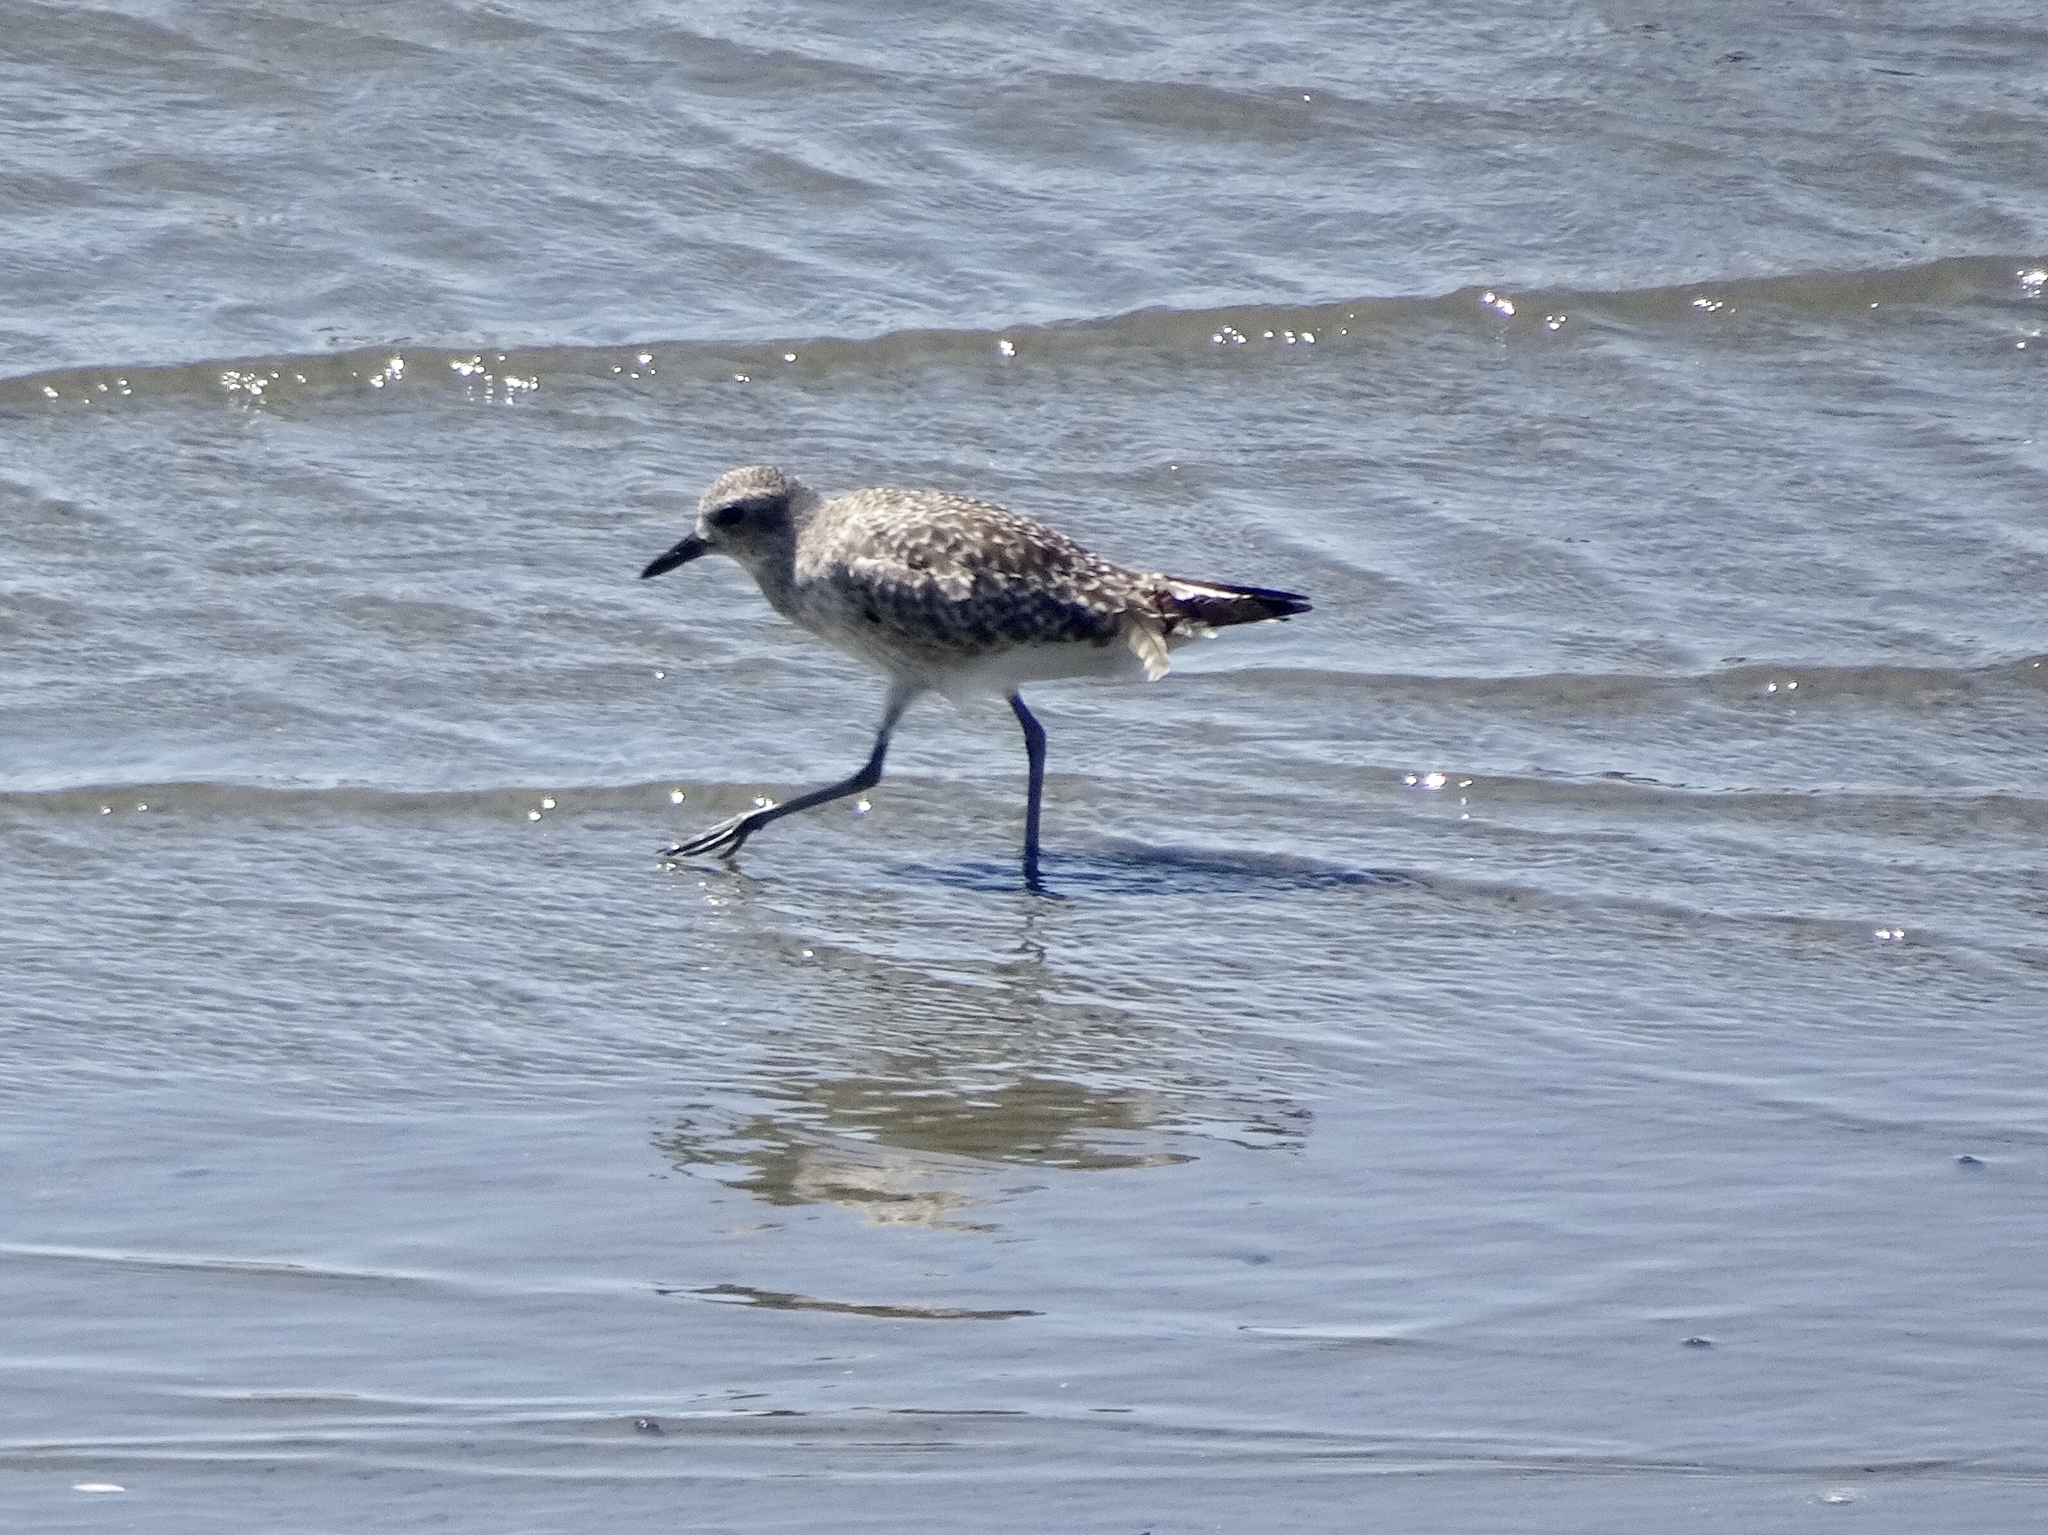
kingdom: Animalia
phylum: Chordata
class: Aves
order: Charadriiformes
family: Charadriidae
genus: Pluvialis
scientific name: Pluvialis squatarola
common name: Grey plover
